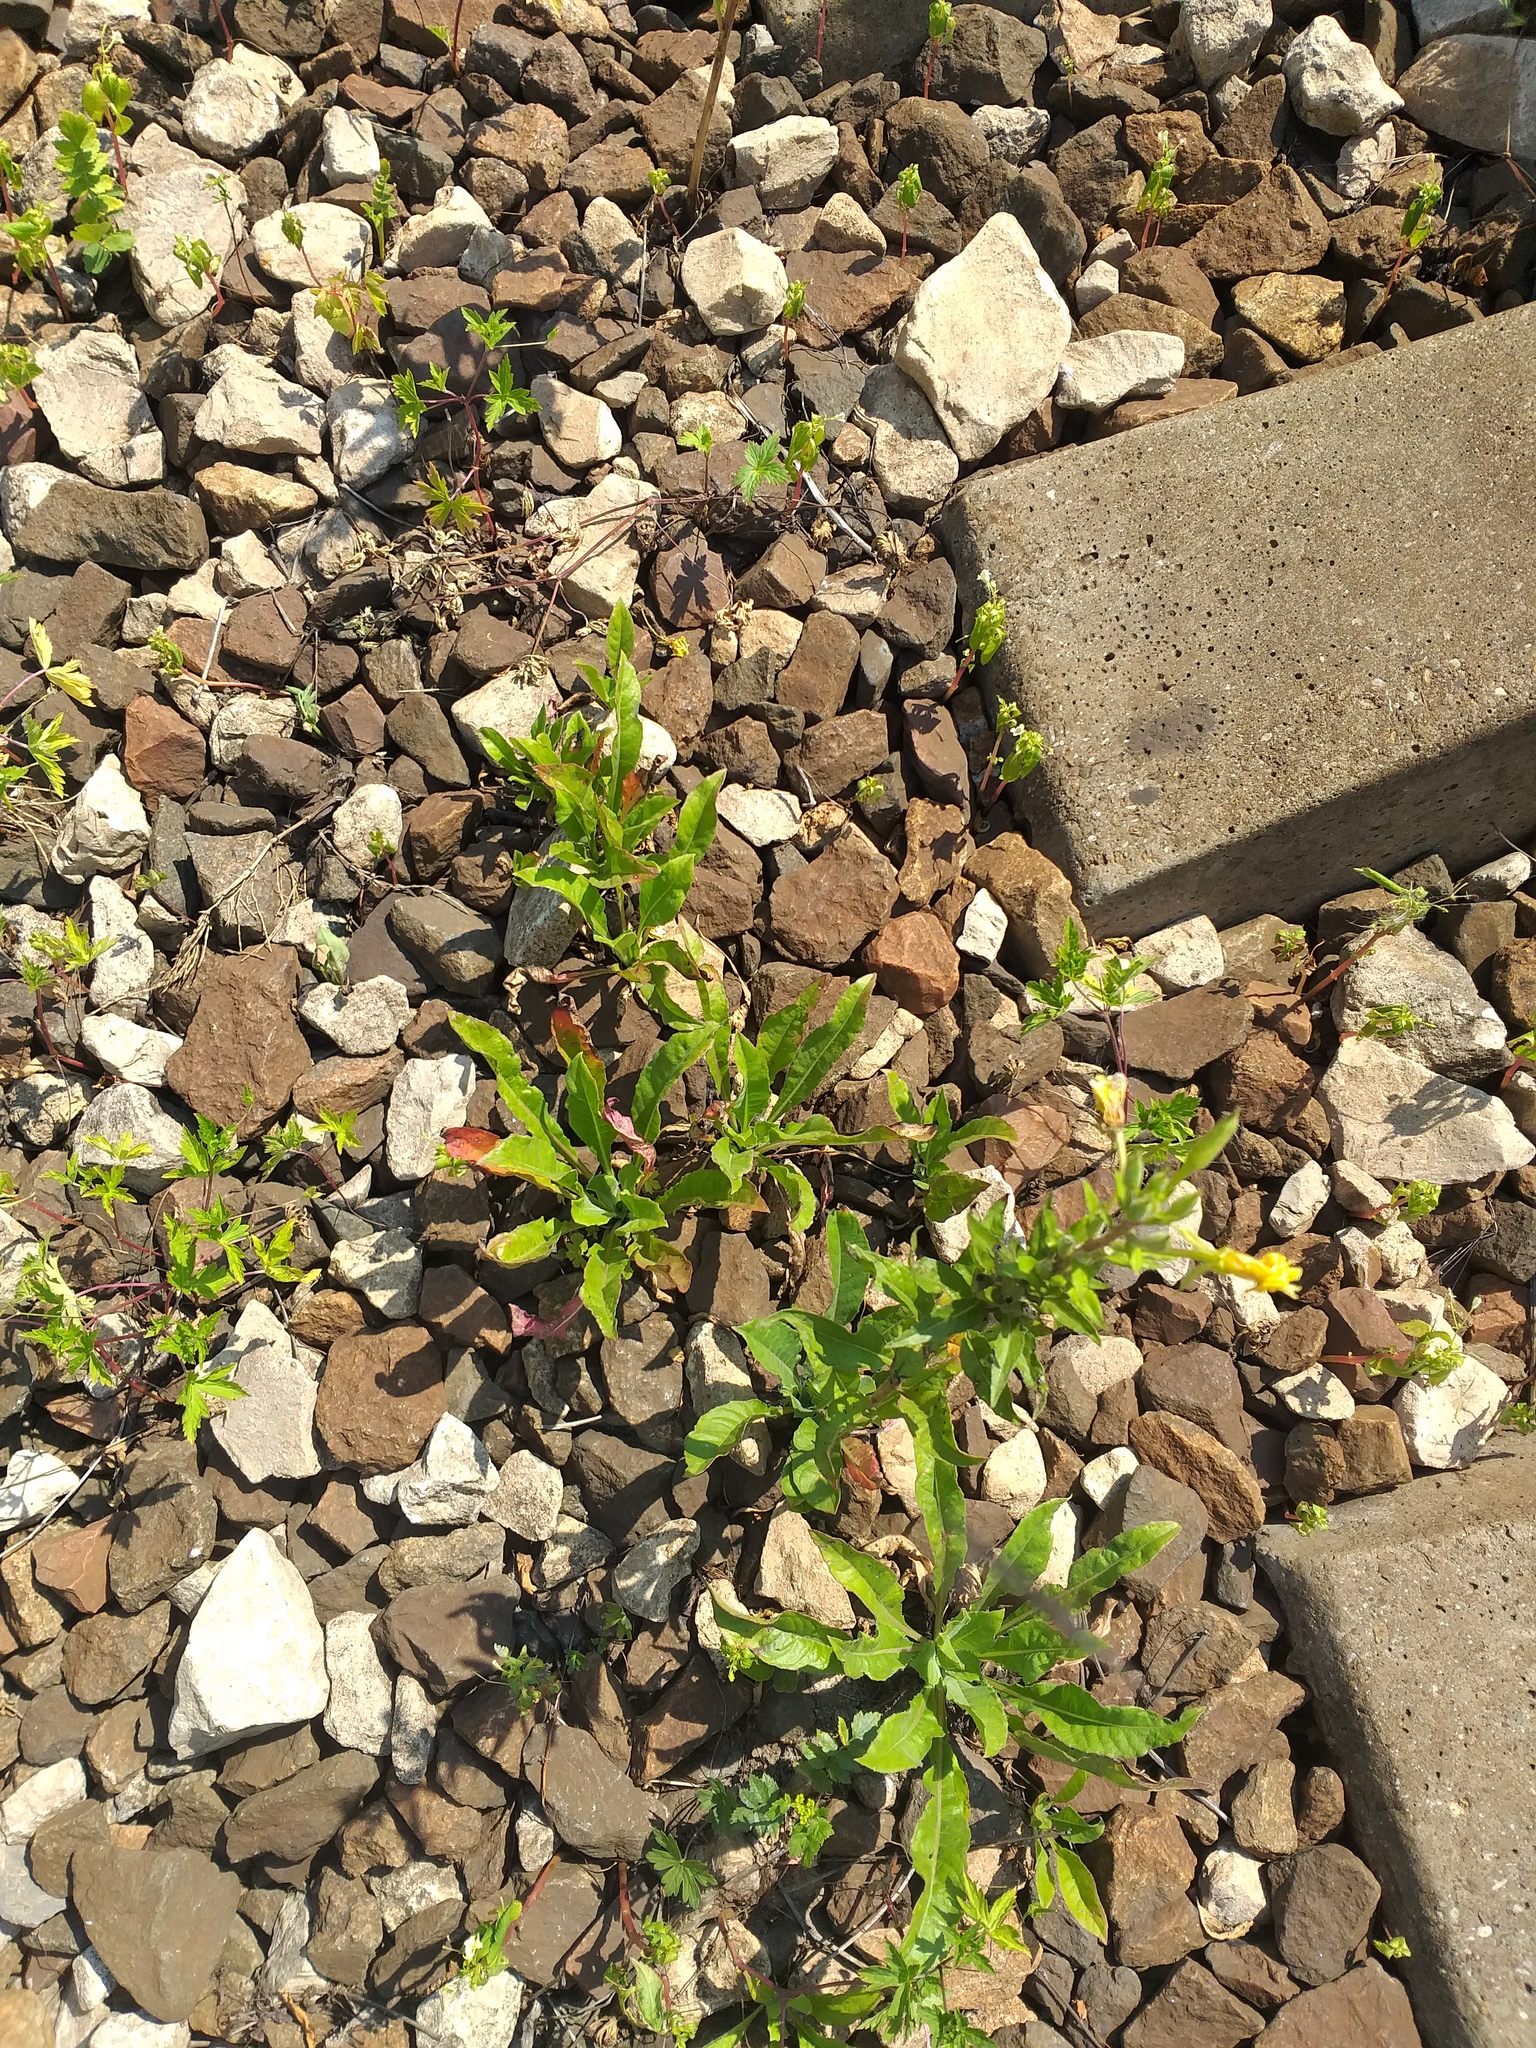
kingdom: Plantae
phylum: Tracheophyta
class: Magnoliopsida
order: Myrtales
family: Onagraceae
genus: Oenothera
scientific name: Oenothera rubricaulis
